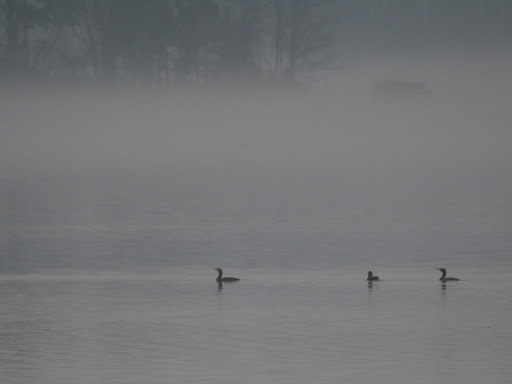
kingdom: Animalia
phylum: Chordata
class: Aves
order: Suliformes
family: Phalacrocoracidae
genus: Phalacrocorax
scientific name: Phalacrocorax auritus
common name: Double-crested cormorant
